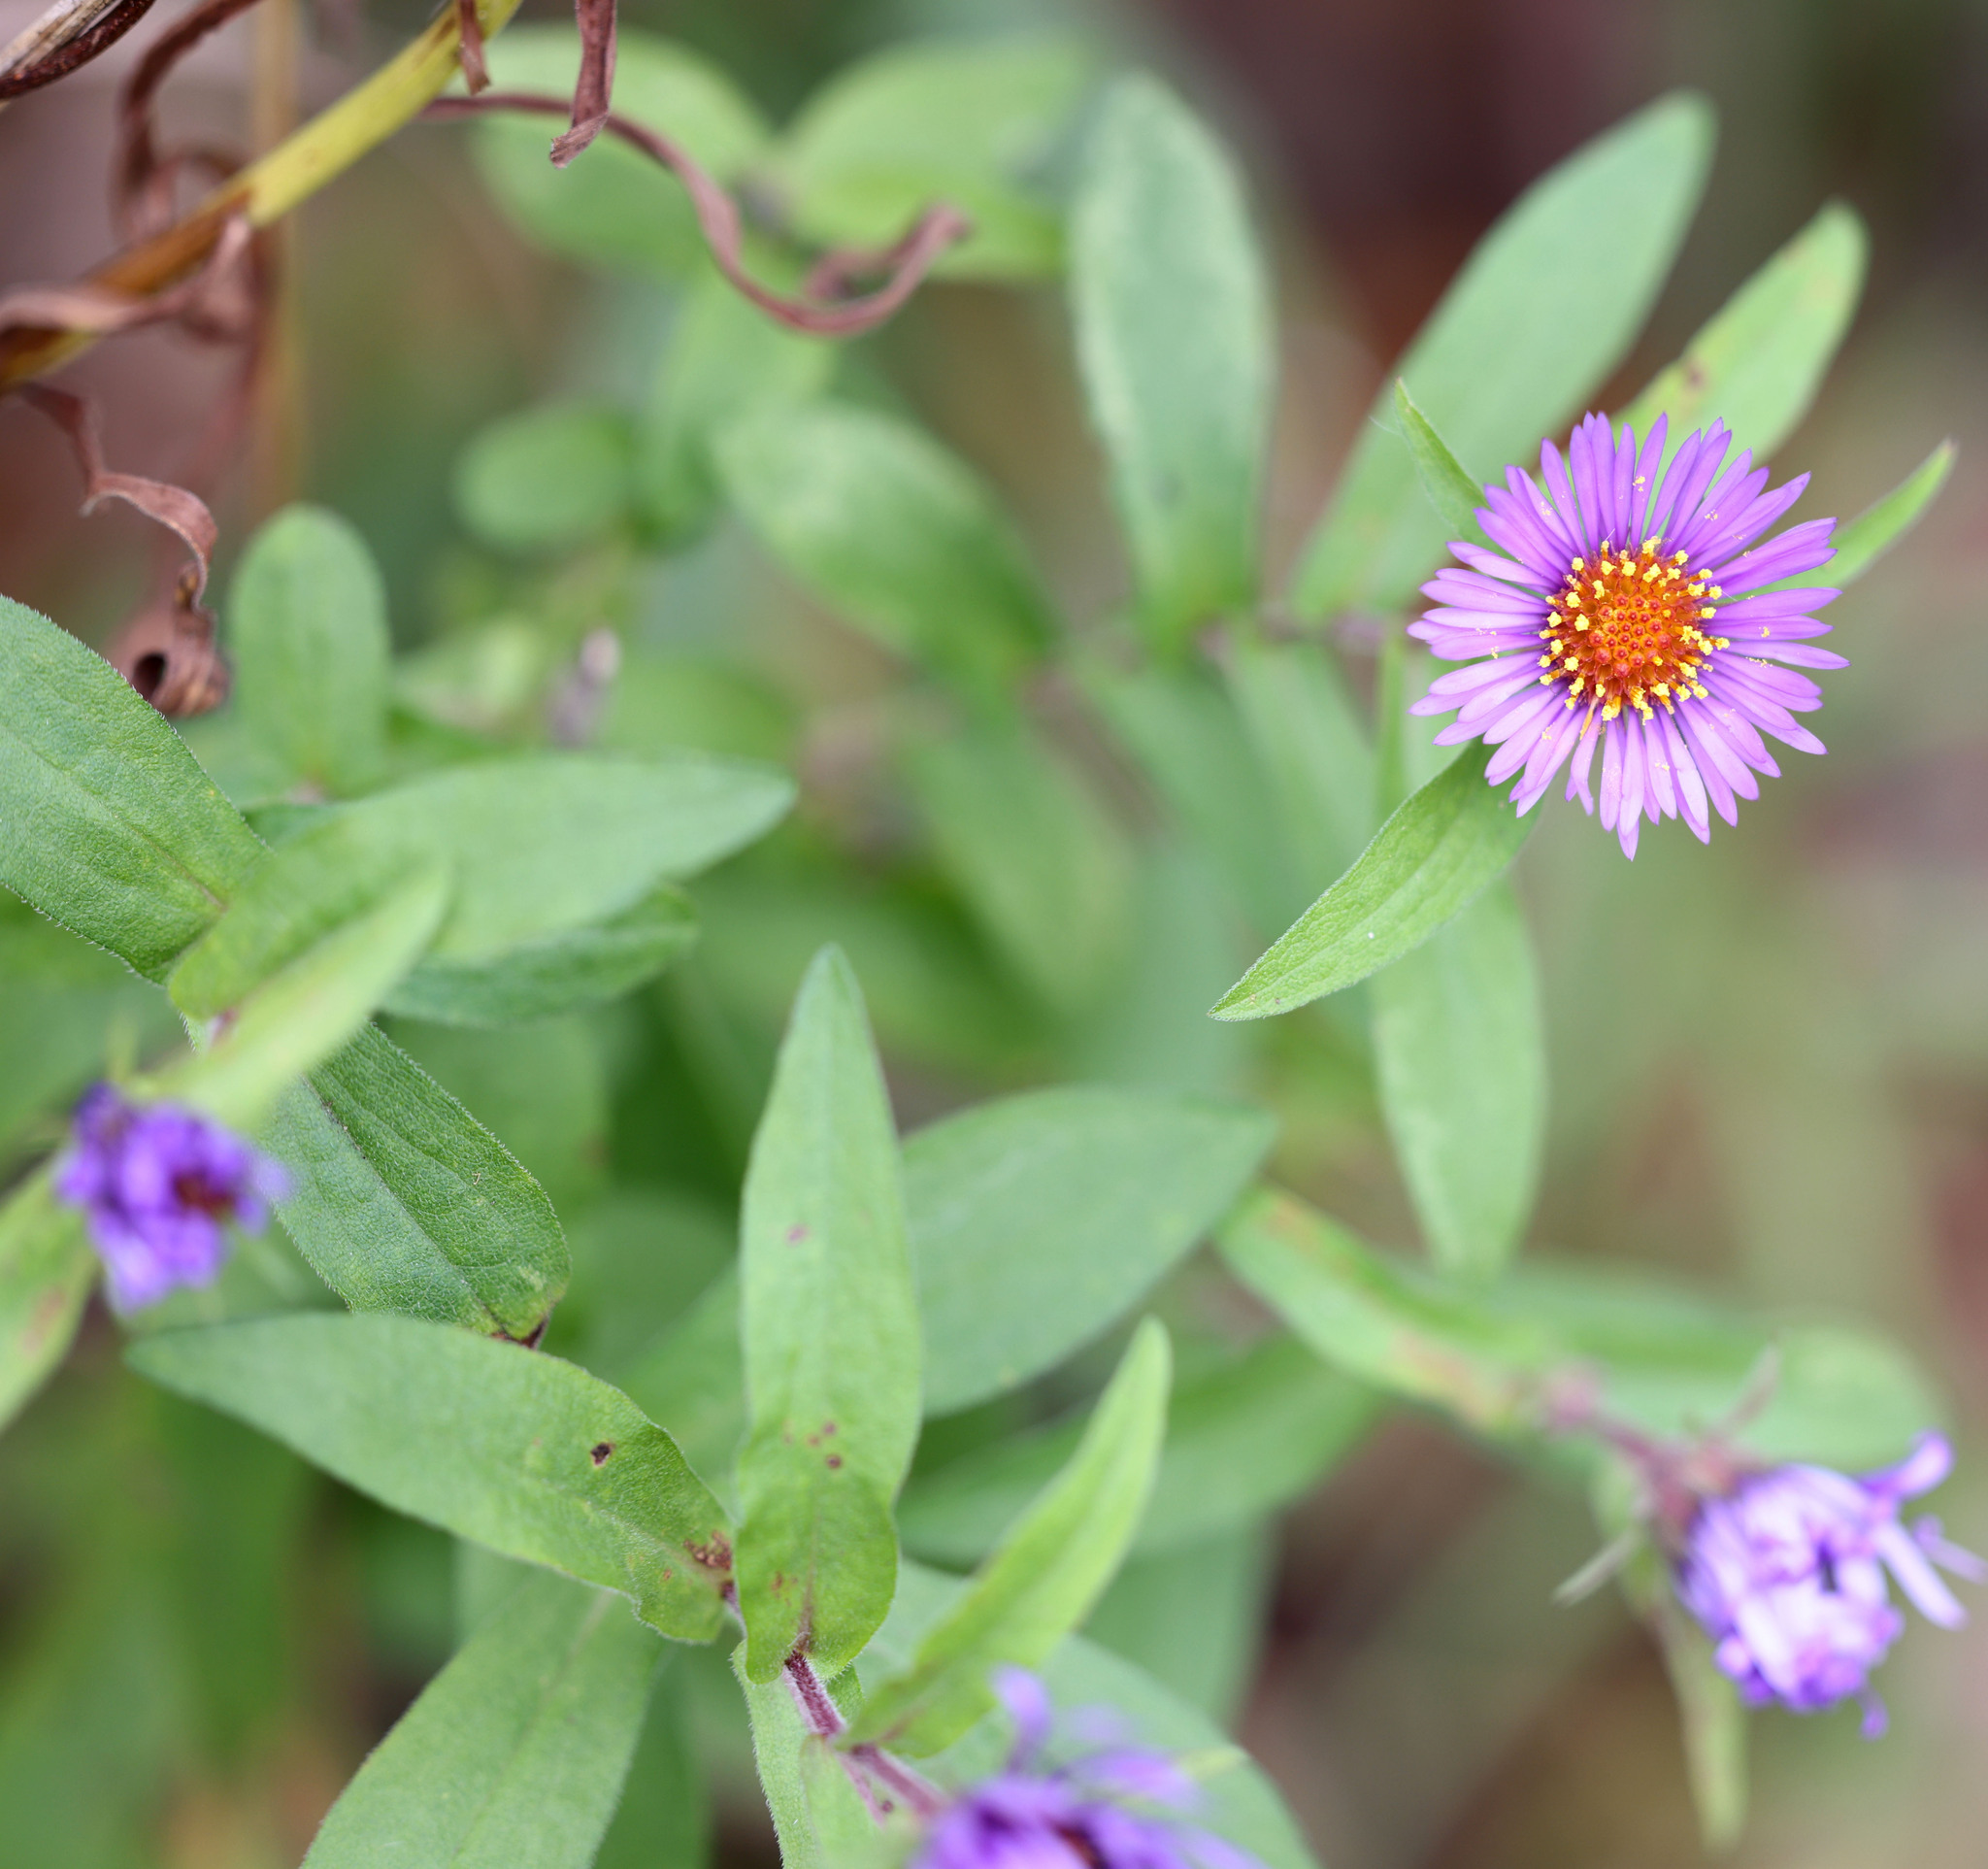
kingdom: Plantae
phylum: Tracheophyta
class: Magnoliopsida
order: Asterales
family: Asteraceae
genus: Symphyotrichum
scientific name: Symphyotrichum novae-angliae
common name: Michaelmas daisy
